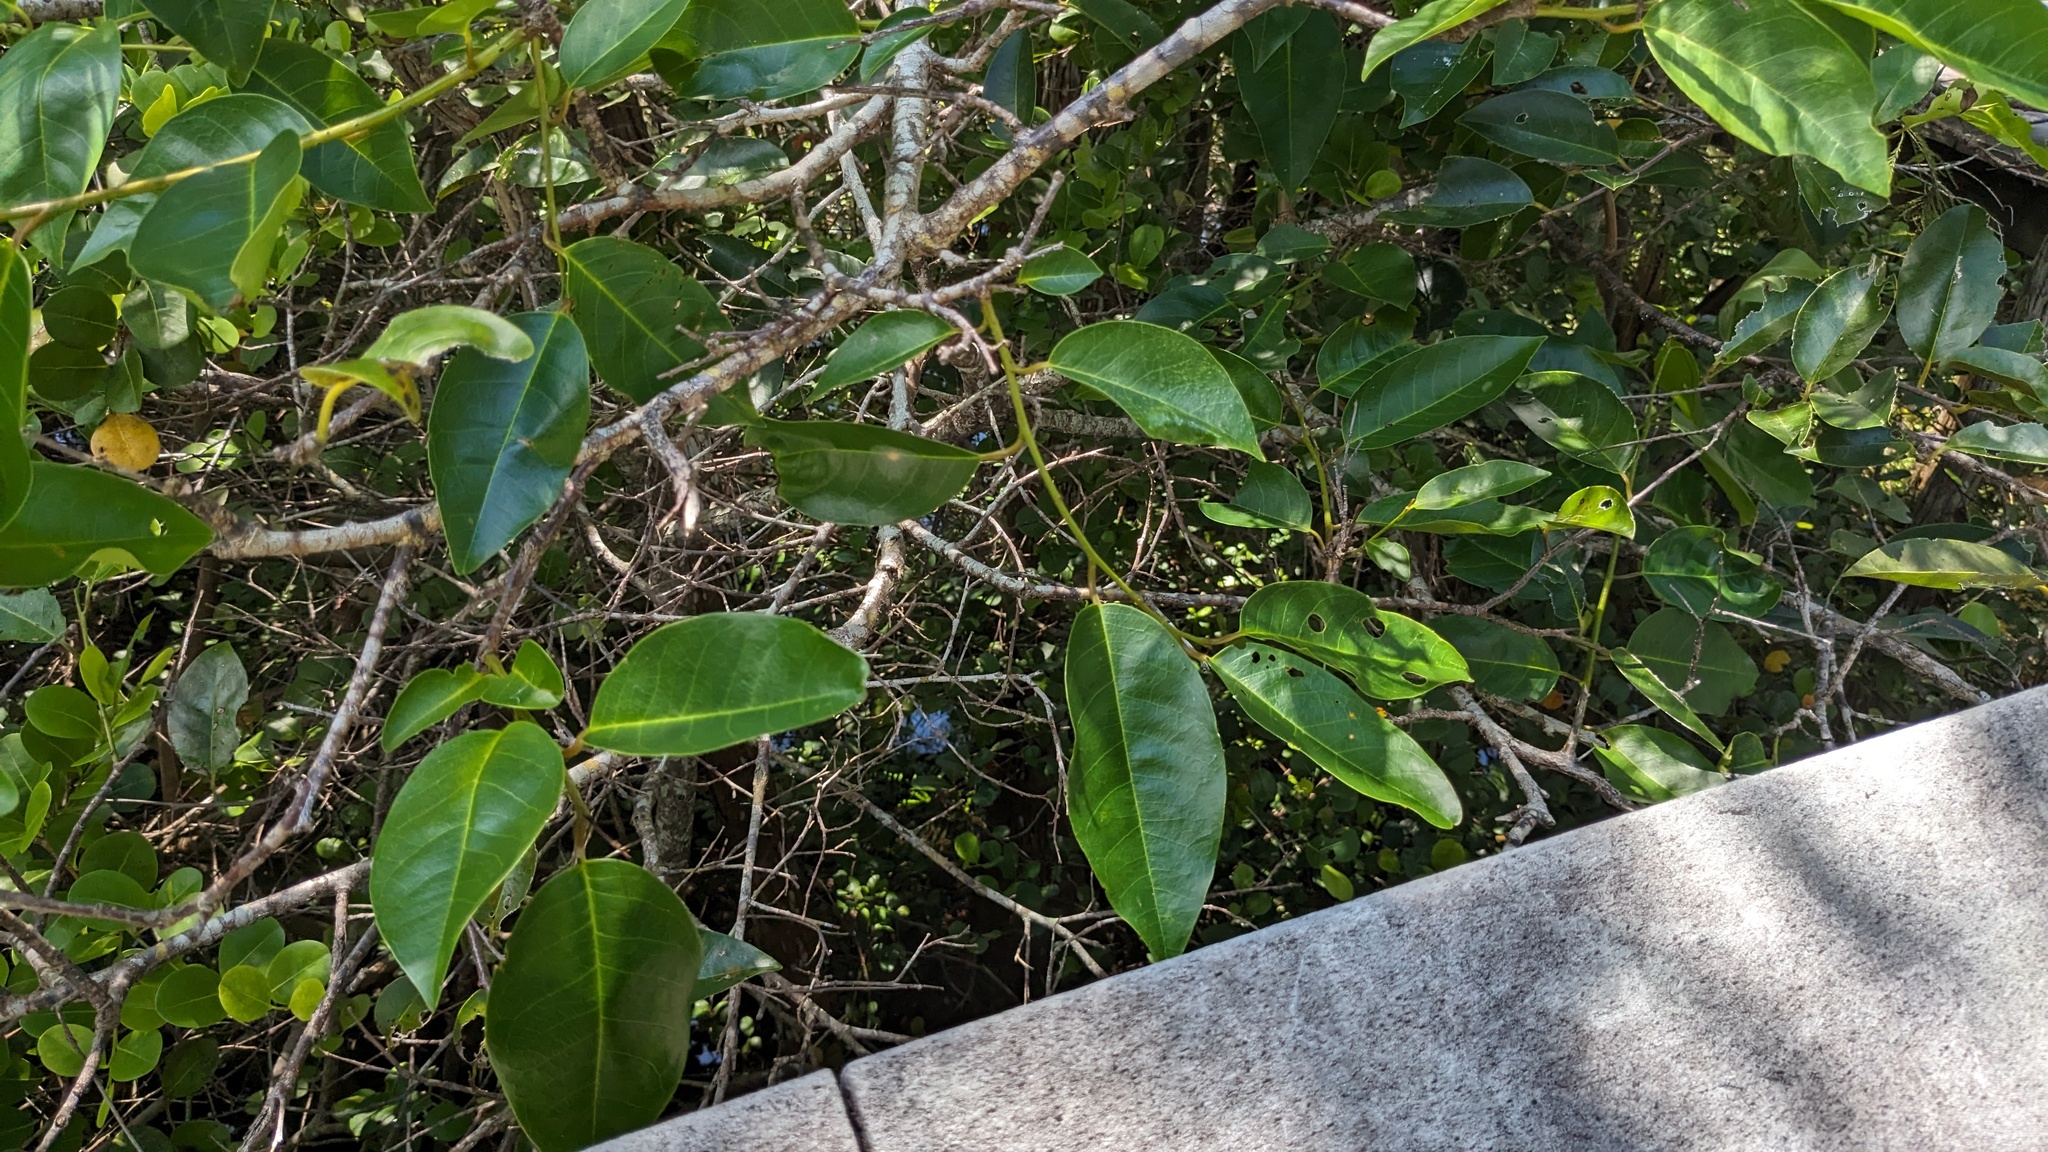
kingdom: Plantae
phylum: Tracheophyta
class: Magnoliopsida
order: Magnoliales
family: Annonaceae
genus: Annona
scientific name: Annona glabra
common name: Monkey apple
